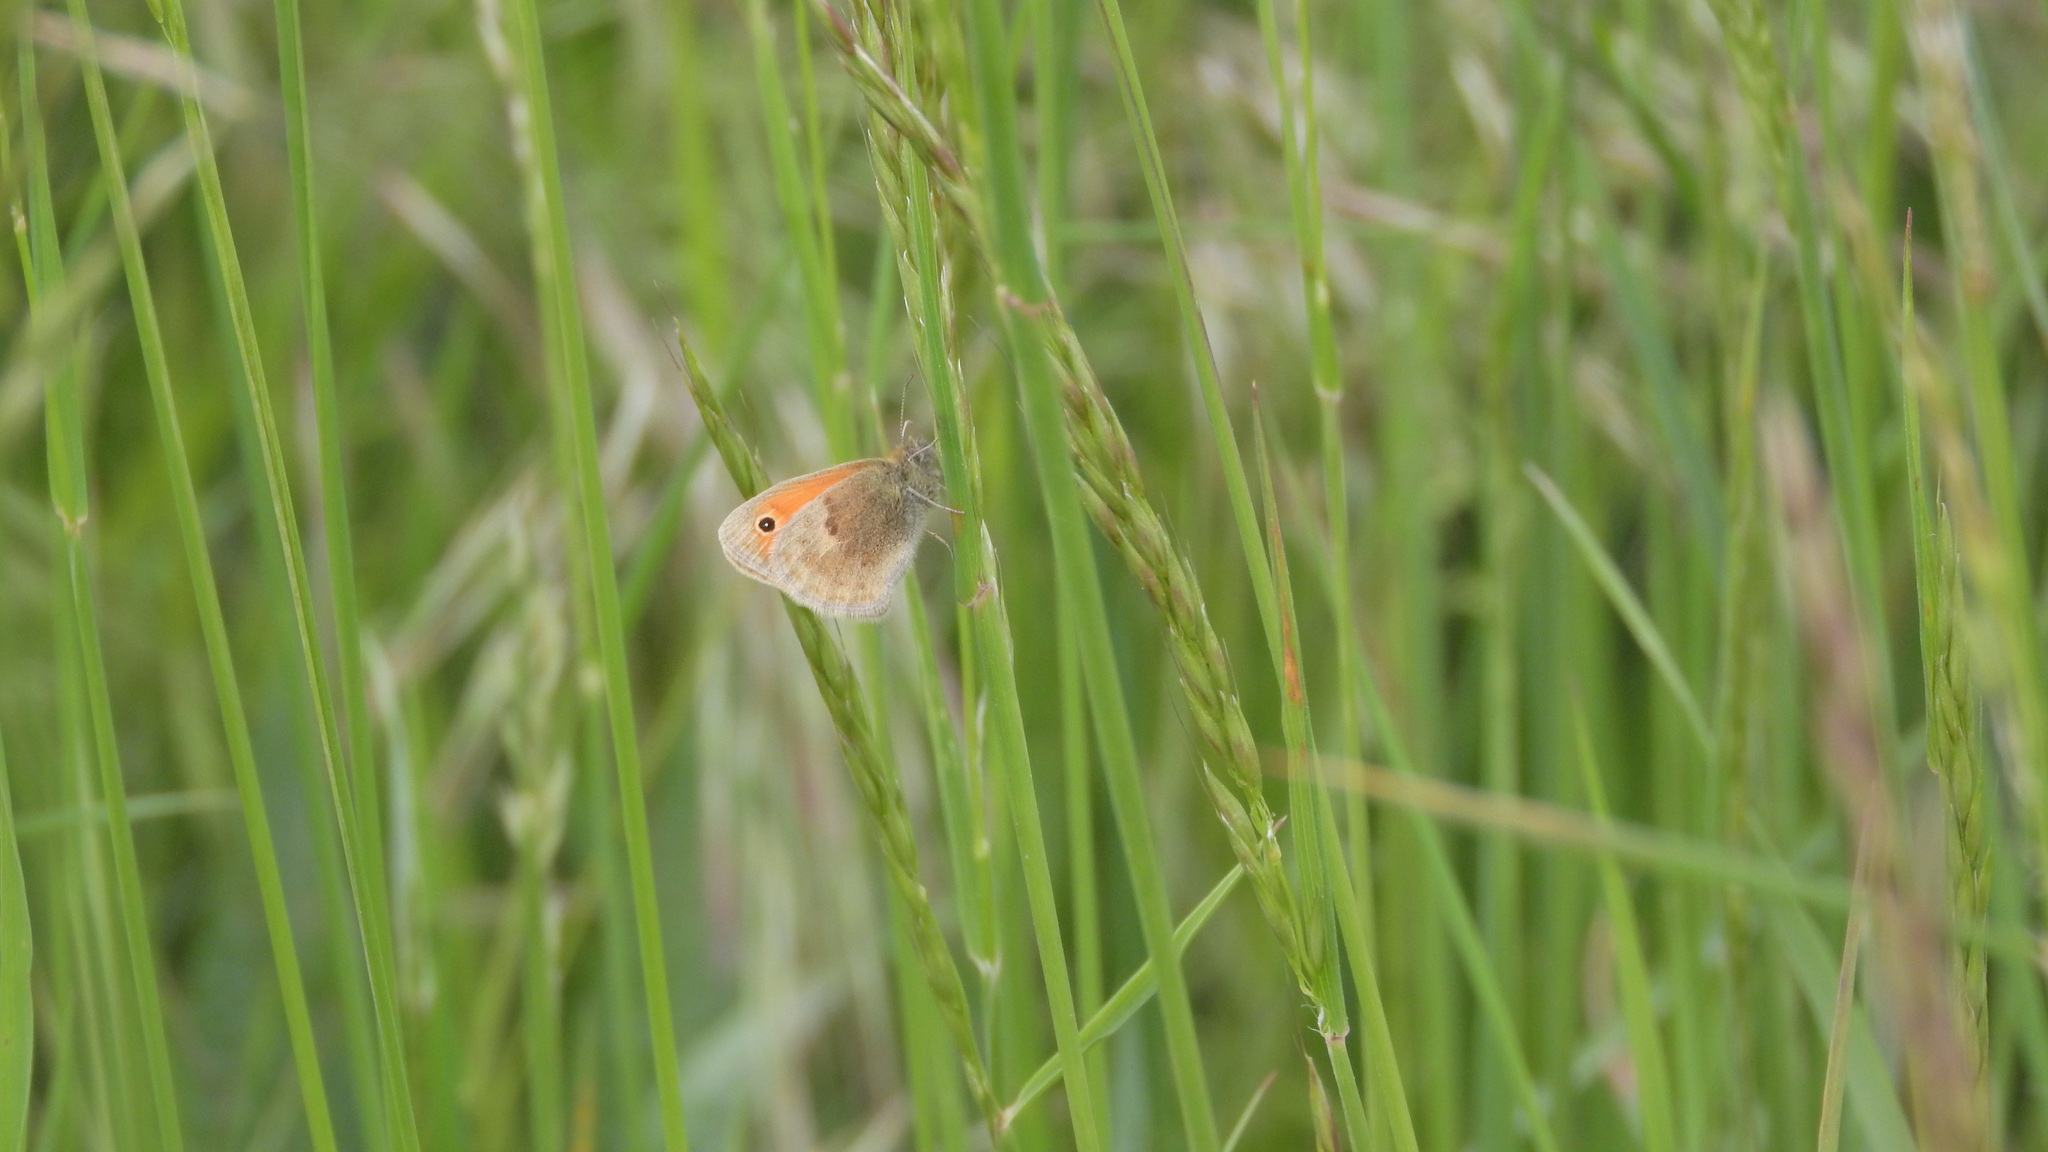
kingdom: Animalia
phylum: Arthropoda
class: Insecta
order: Lepidoptera
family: Nymphalidae
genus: Coenonympha
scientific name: Coenonympha pamphilus
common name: Small heath
